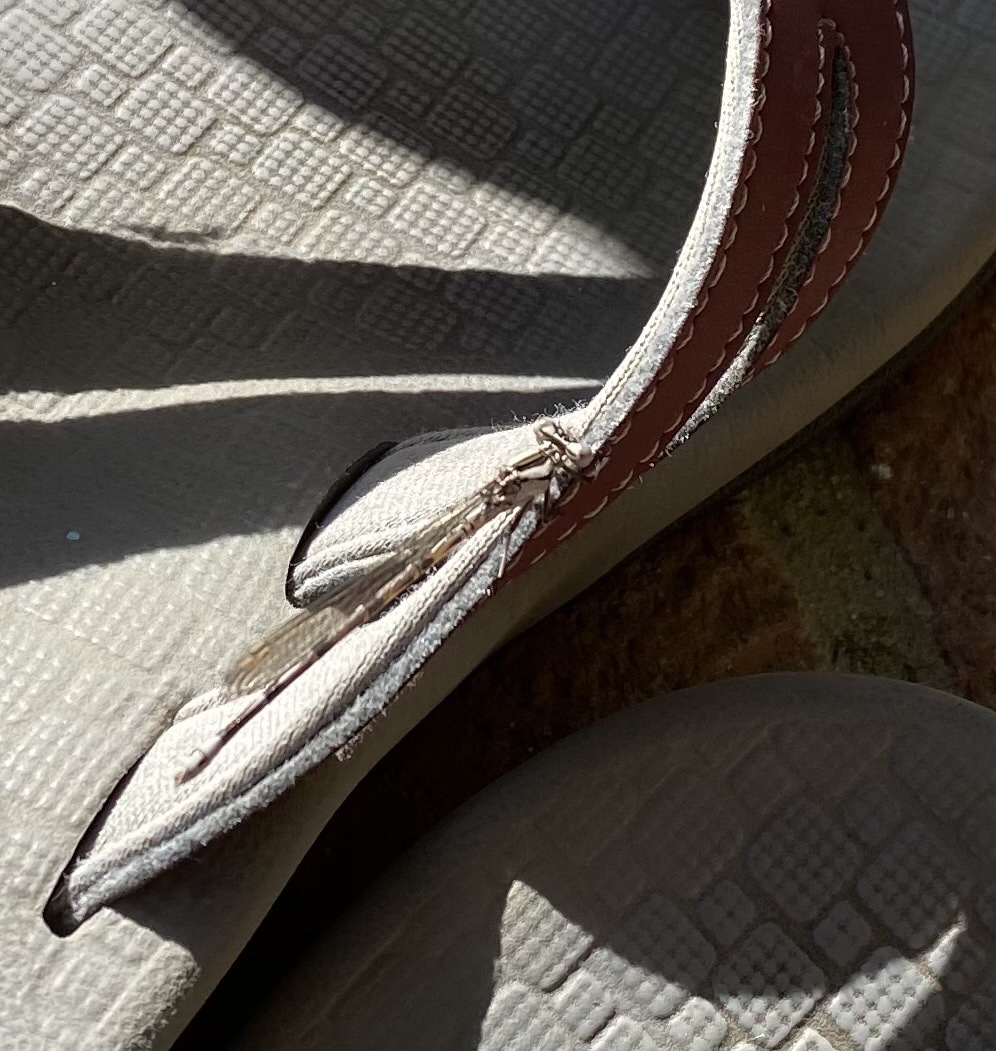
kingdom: Animalia
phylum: Arthropoda
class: Insecta
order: Odonata
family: Coenagrionidae
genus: Argia
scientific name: Argia vivida
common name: Vivid dancer
